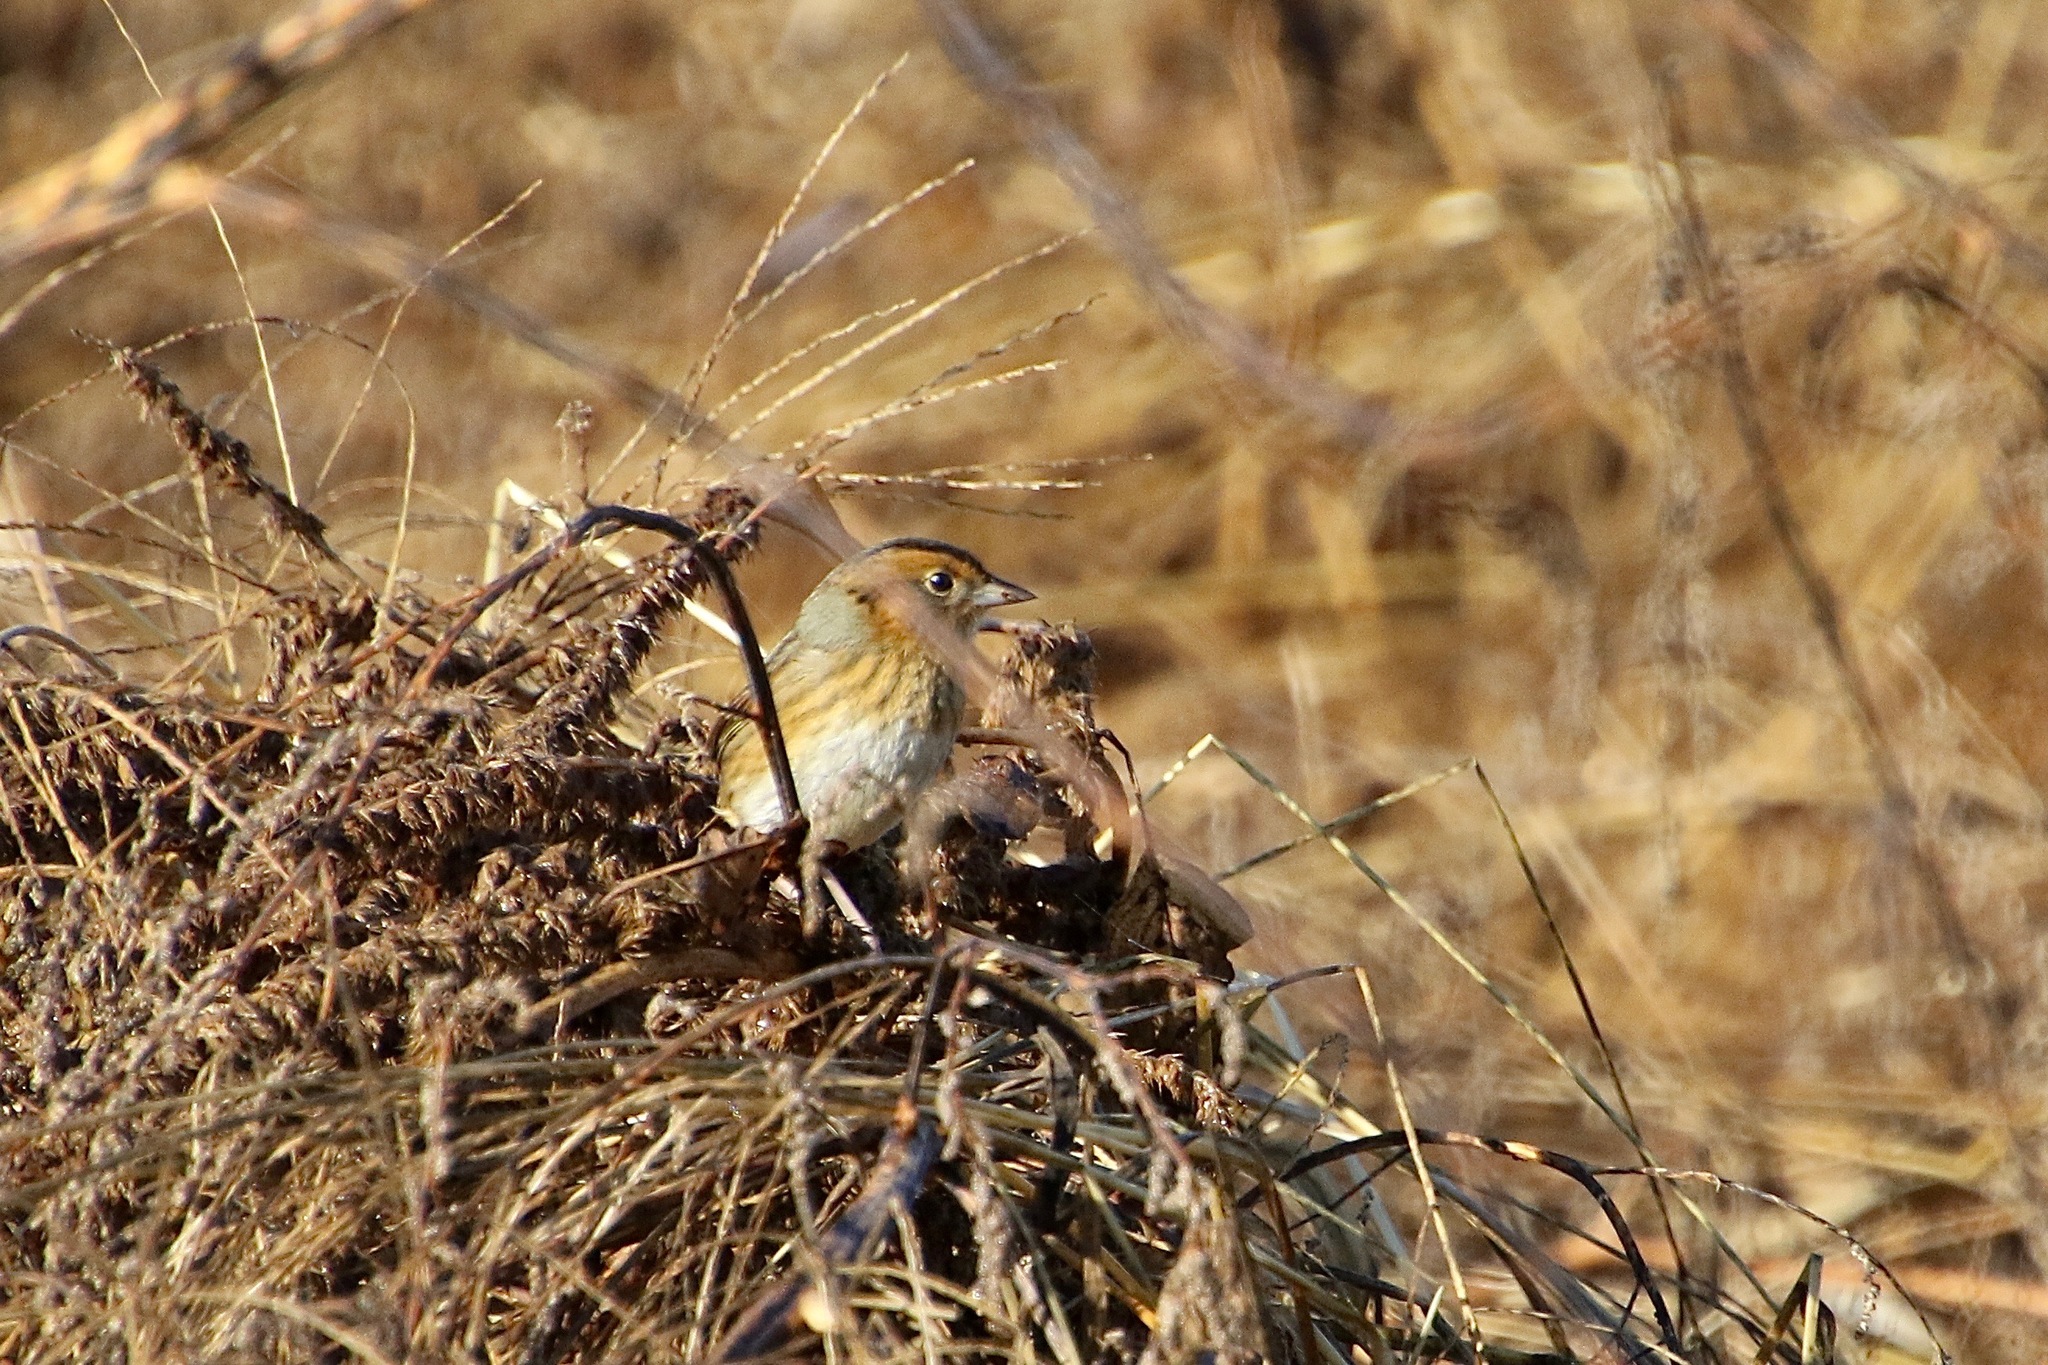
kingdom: Animalia
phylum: Chordata
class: Aves
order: Passeriformes
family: Passerellidae
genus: Ammospiza
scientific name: Ammospiza nelsoni
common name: Nelson's sparrow
